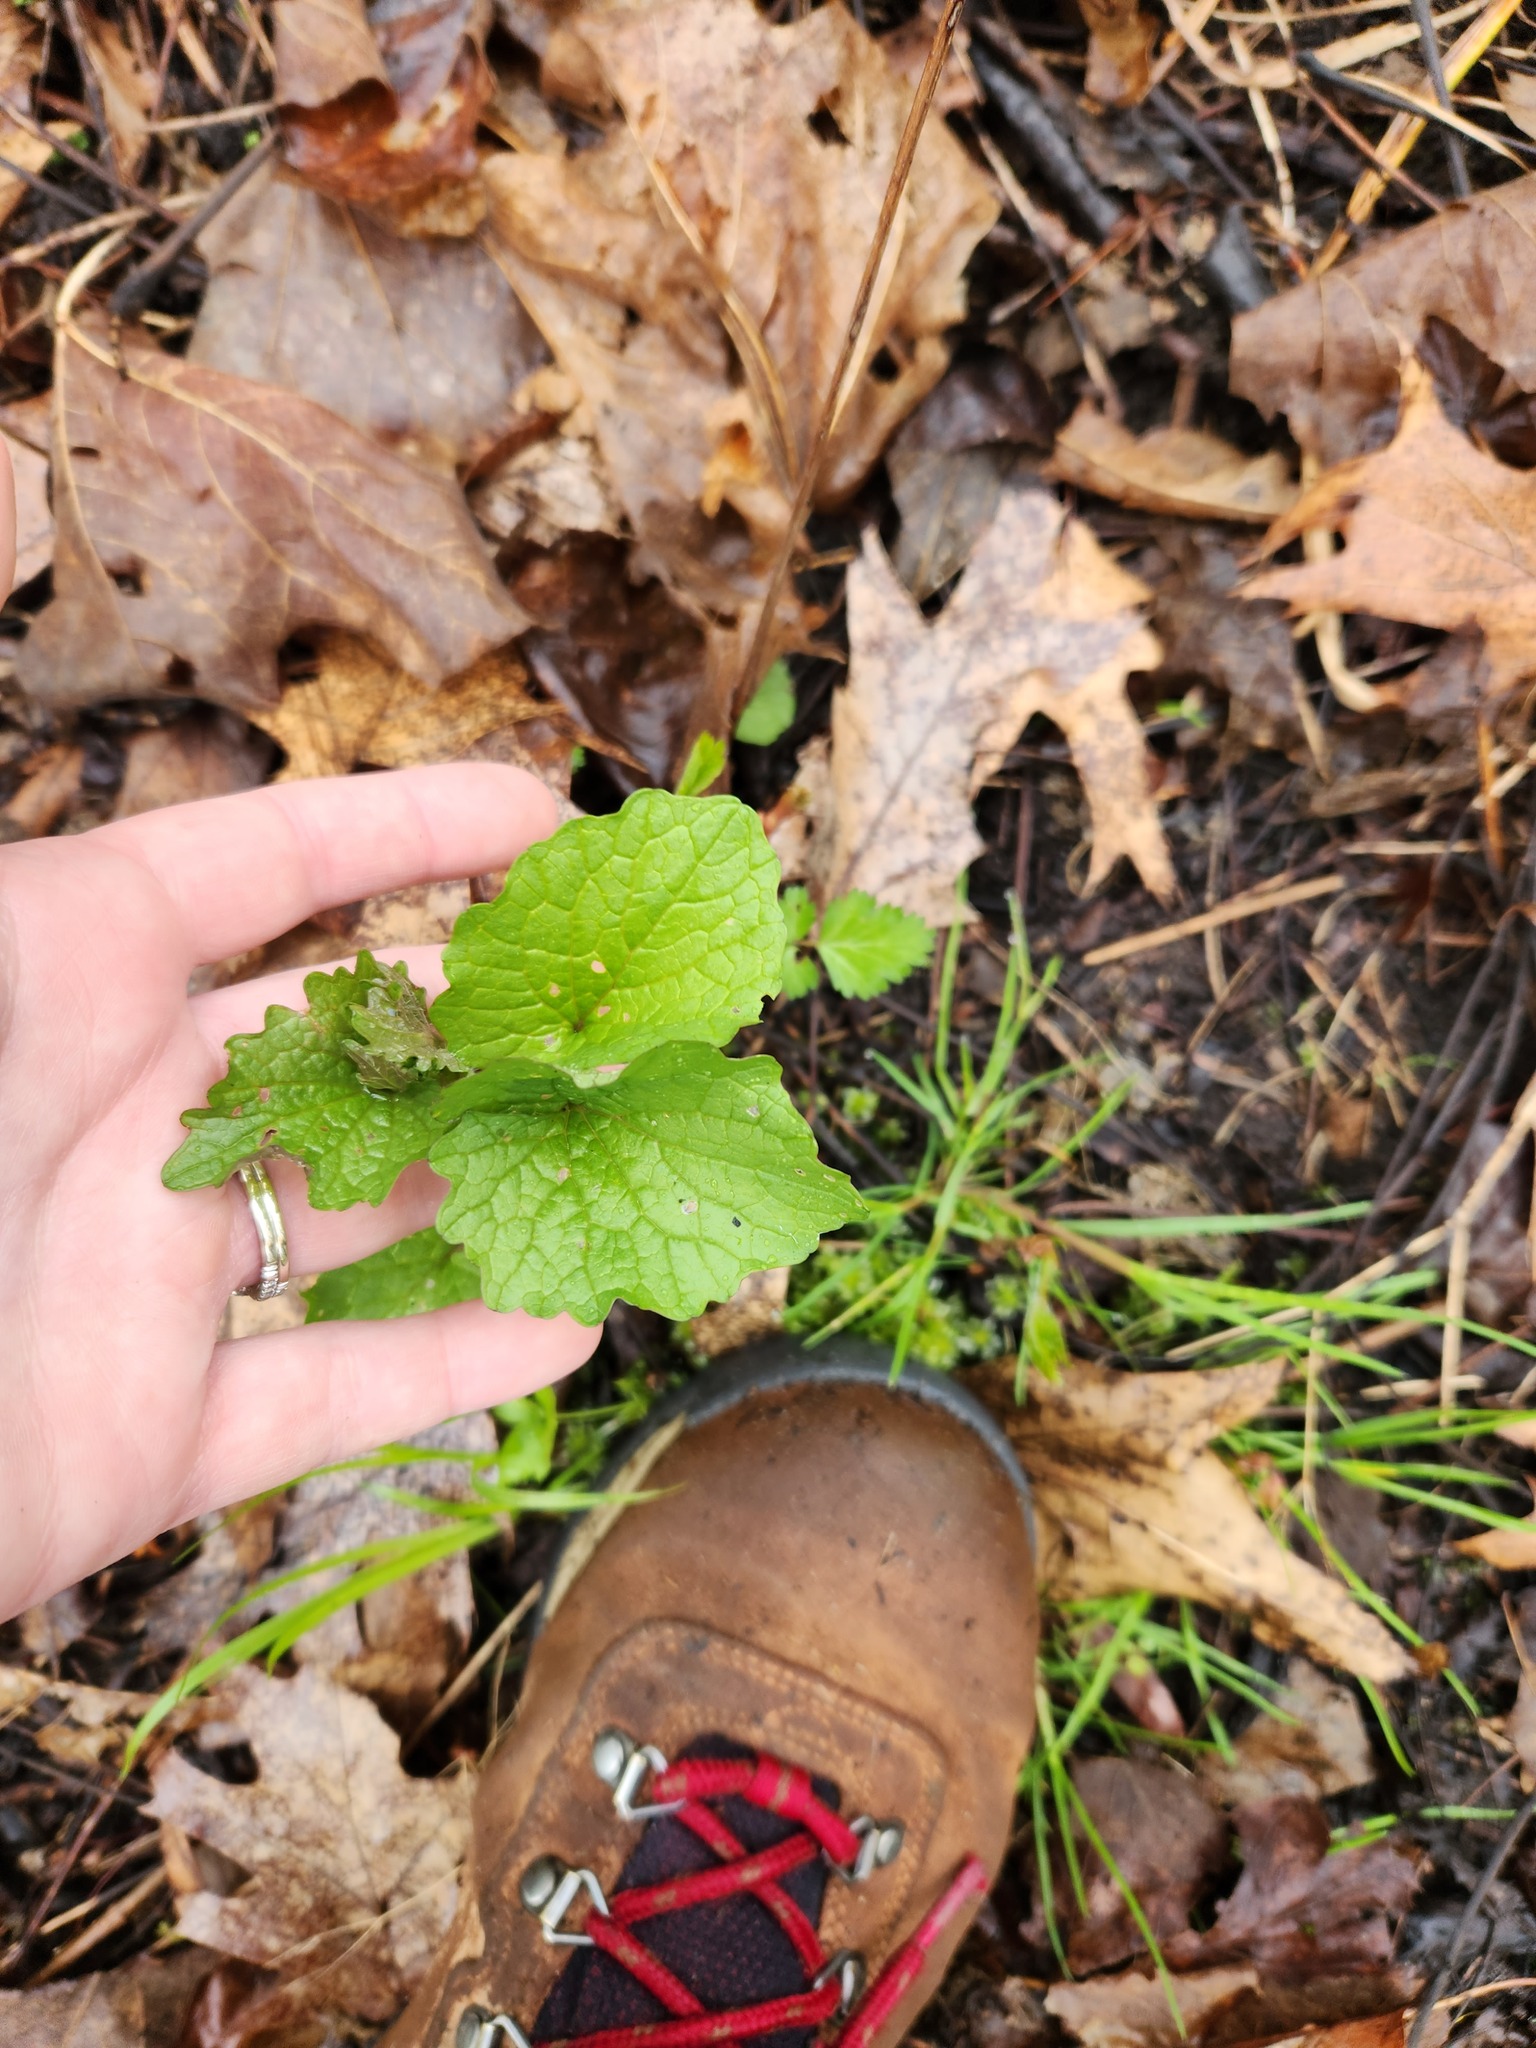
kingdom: Plantae
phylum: Tracheophyta
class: Magnoliopsida
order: Brassicales
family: Brassicaceae
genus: Alliaria
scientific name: Alliaria petiolata
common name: Garlic mustard
